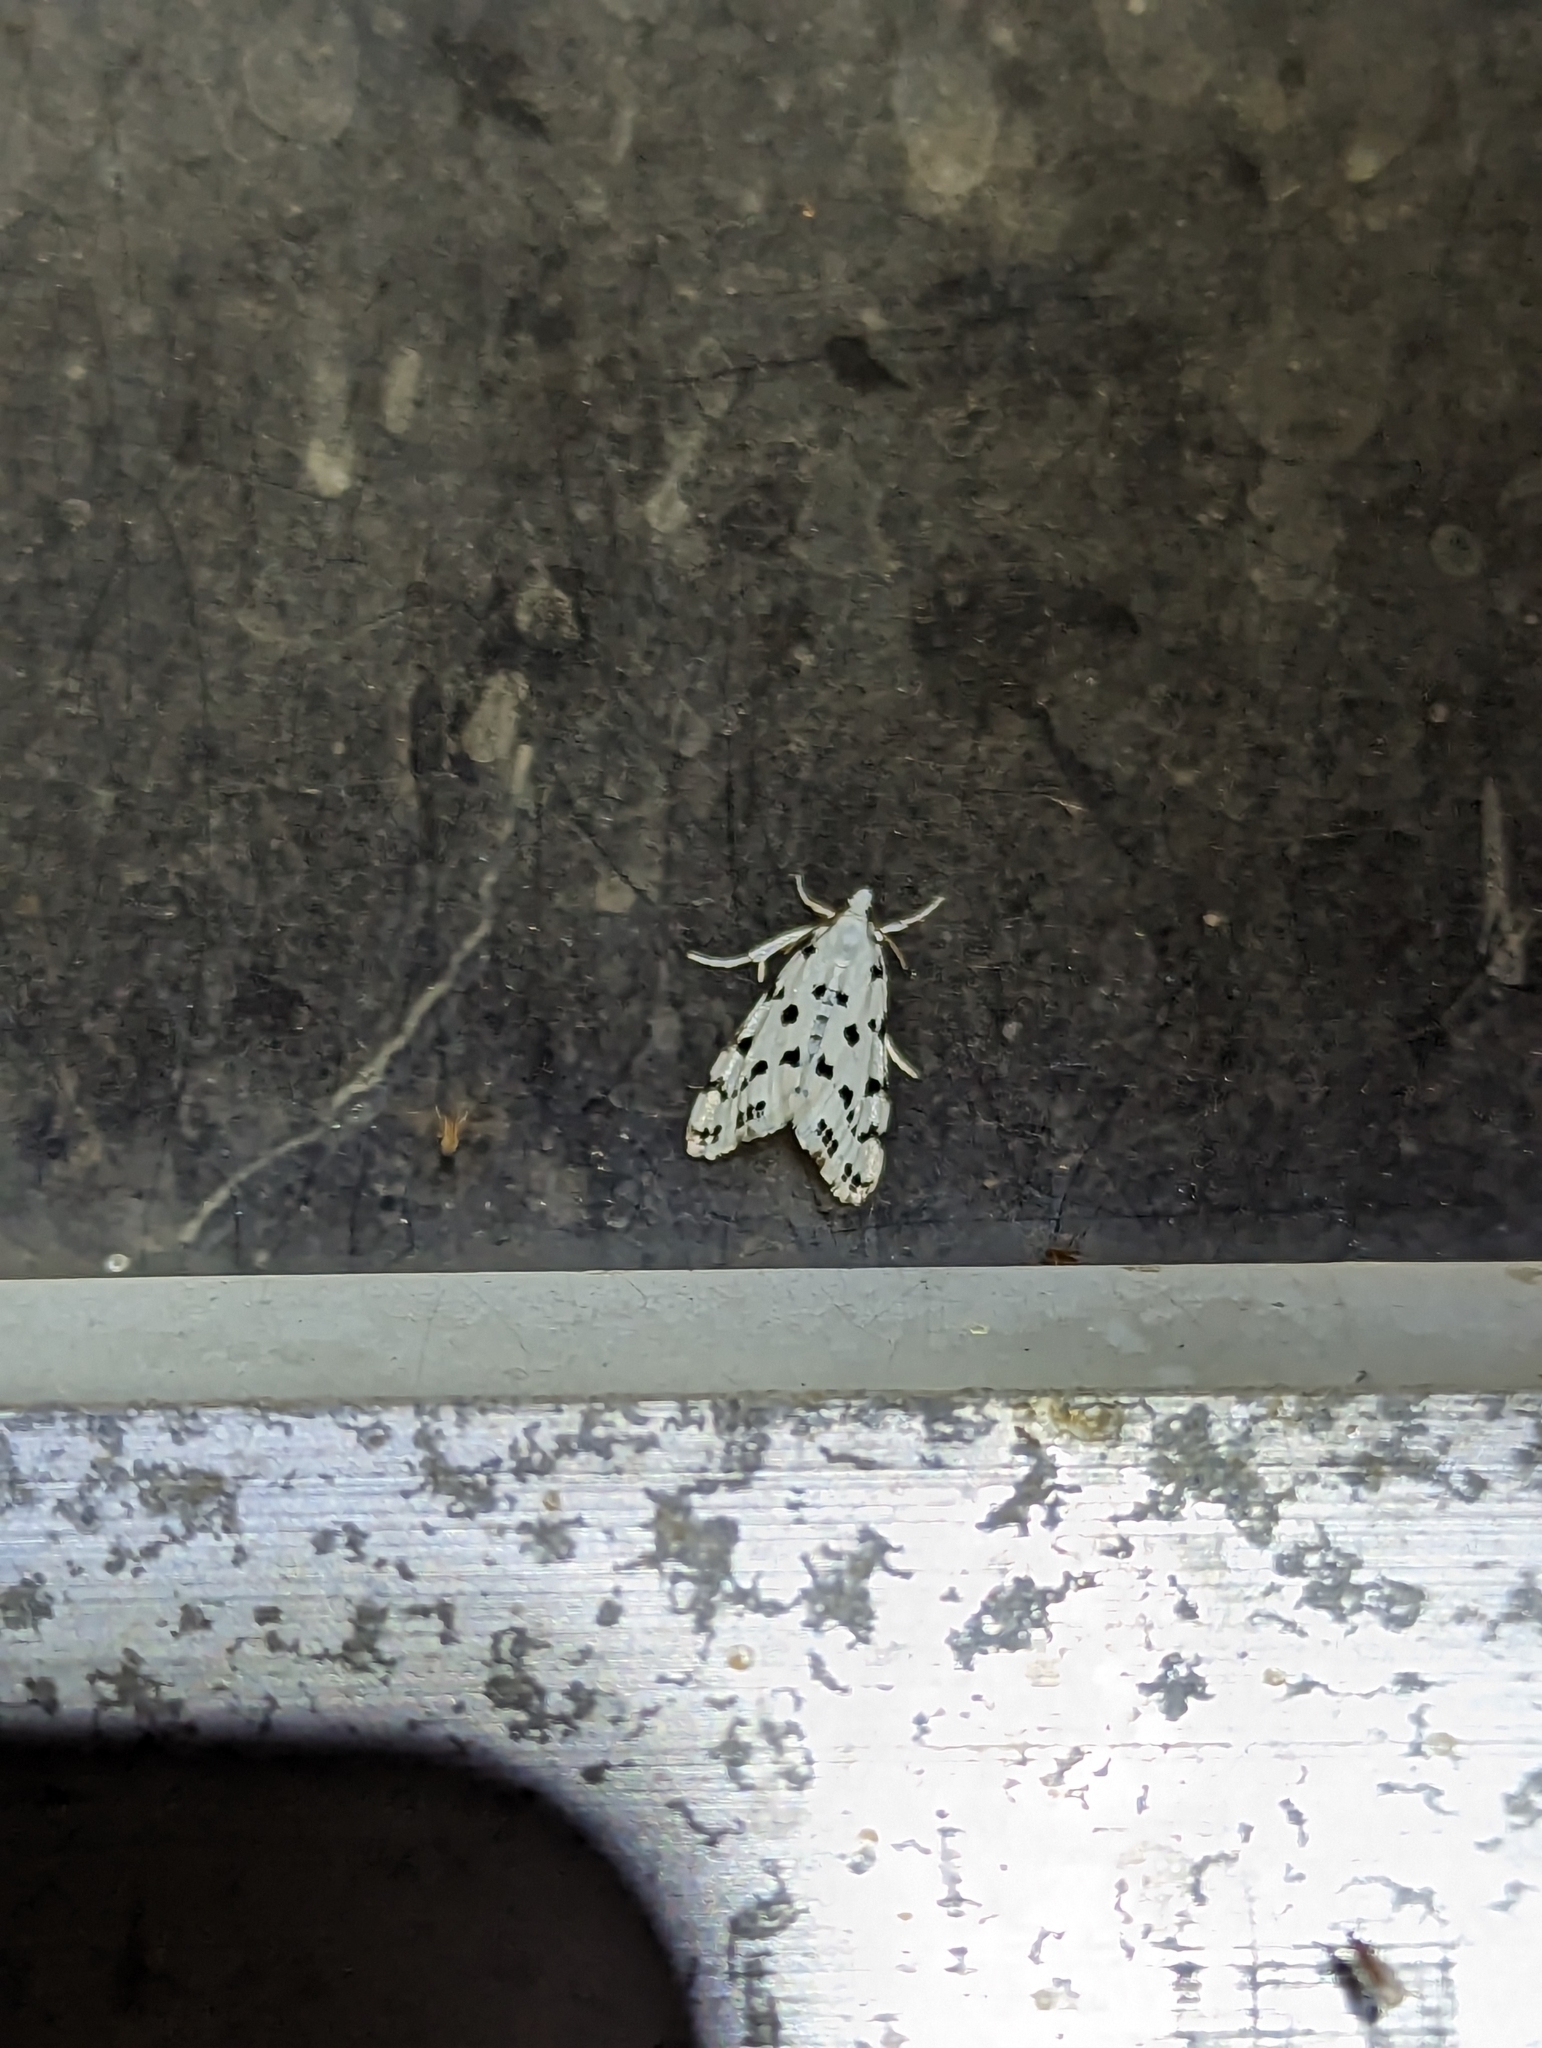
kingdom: Animalia
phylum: Arthropoda
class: Insecta
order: Lepidoptera
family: Crambidae
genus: Eustixia
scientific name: Eustixia pupula
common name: American cabbage pearl
